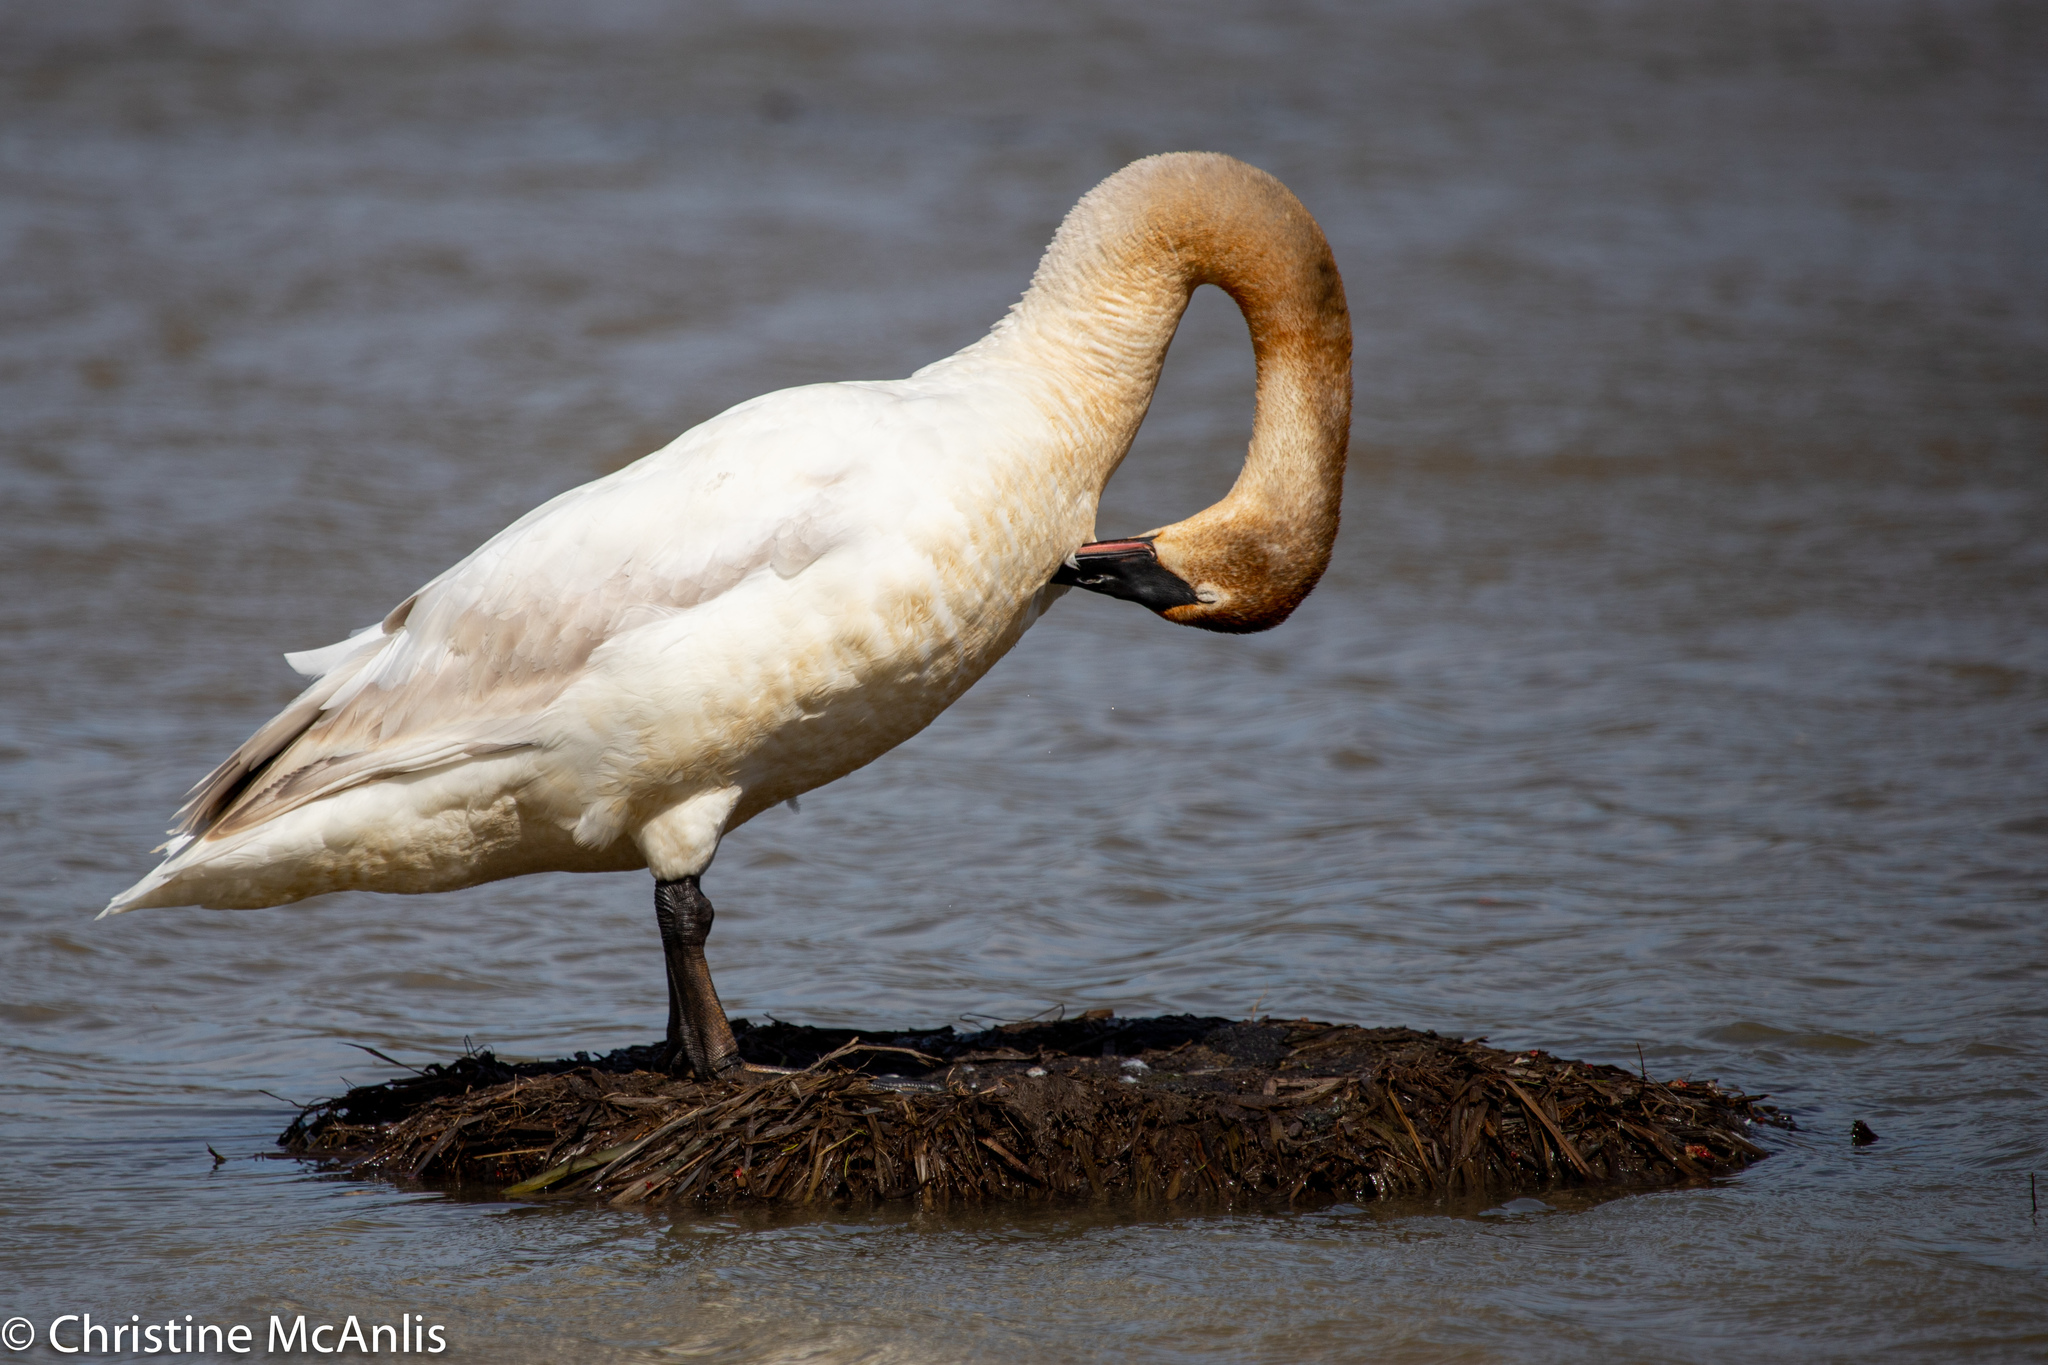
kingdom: Animalia
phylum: Chordata
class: Aves
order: Anseriformes
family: Anatidae
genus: Cygnus
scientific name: Cygnus buccinator
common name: Trumpeter swan
